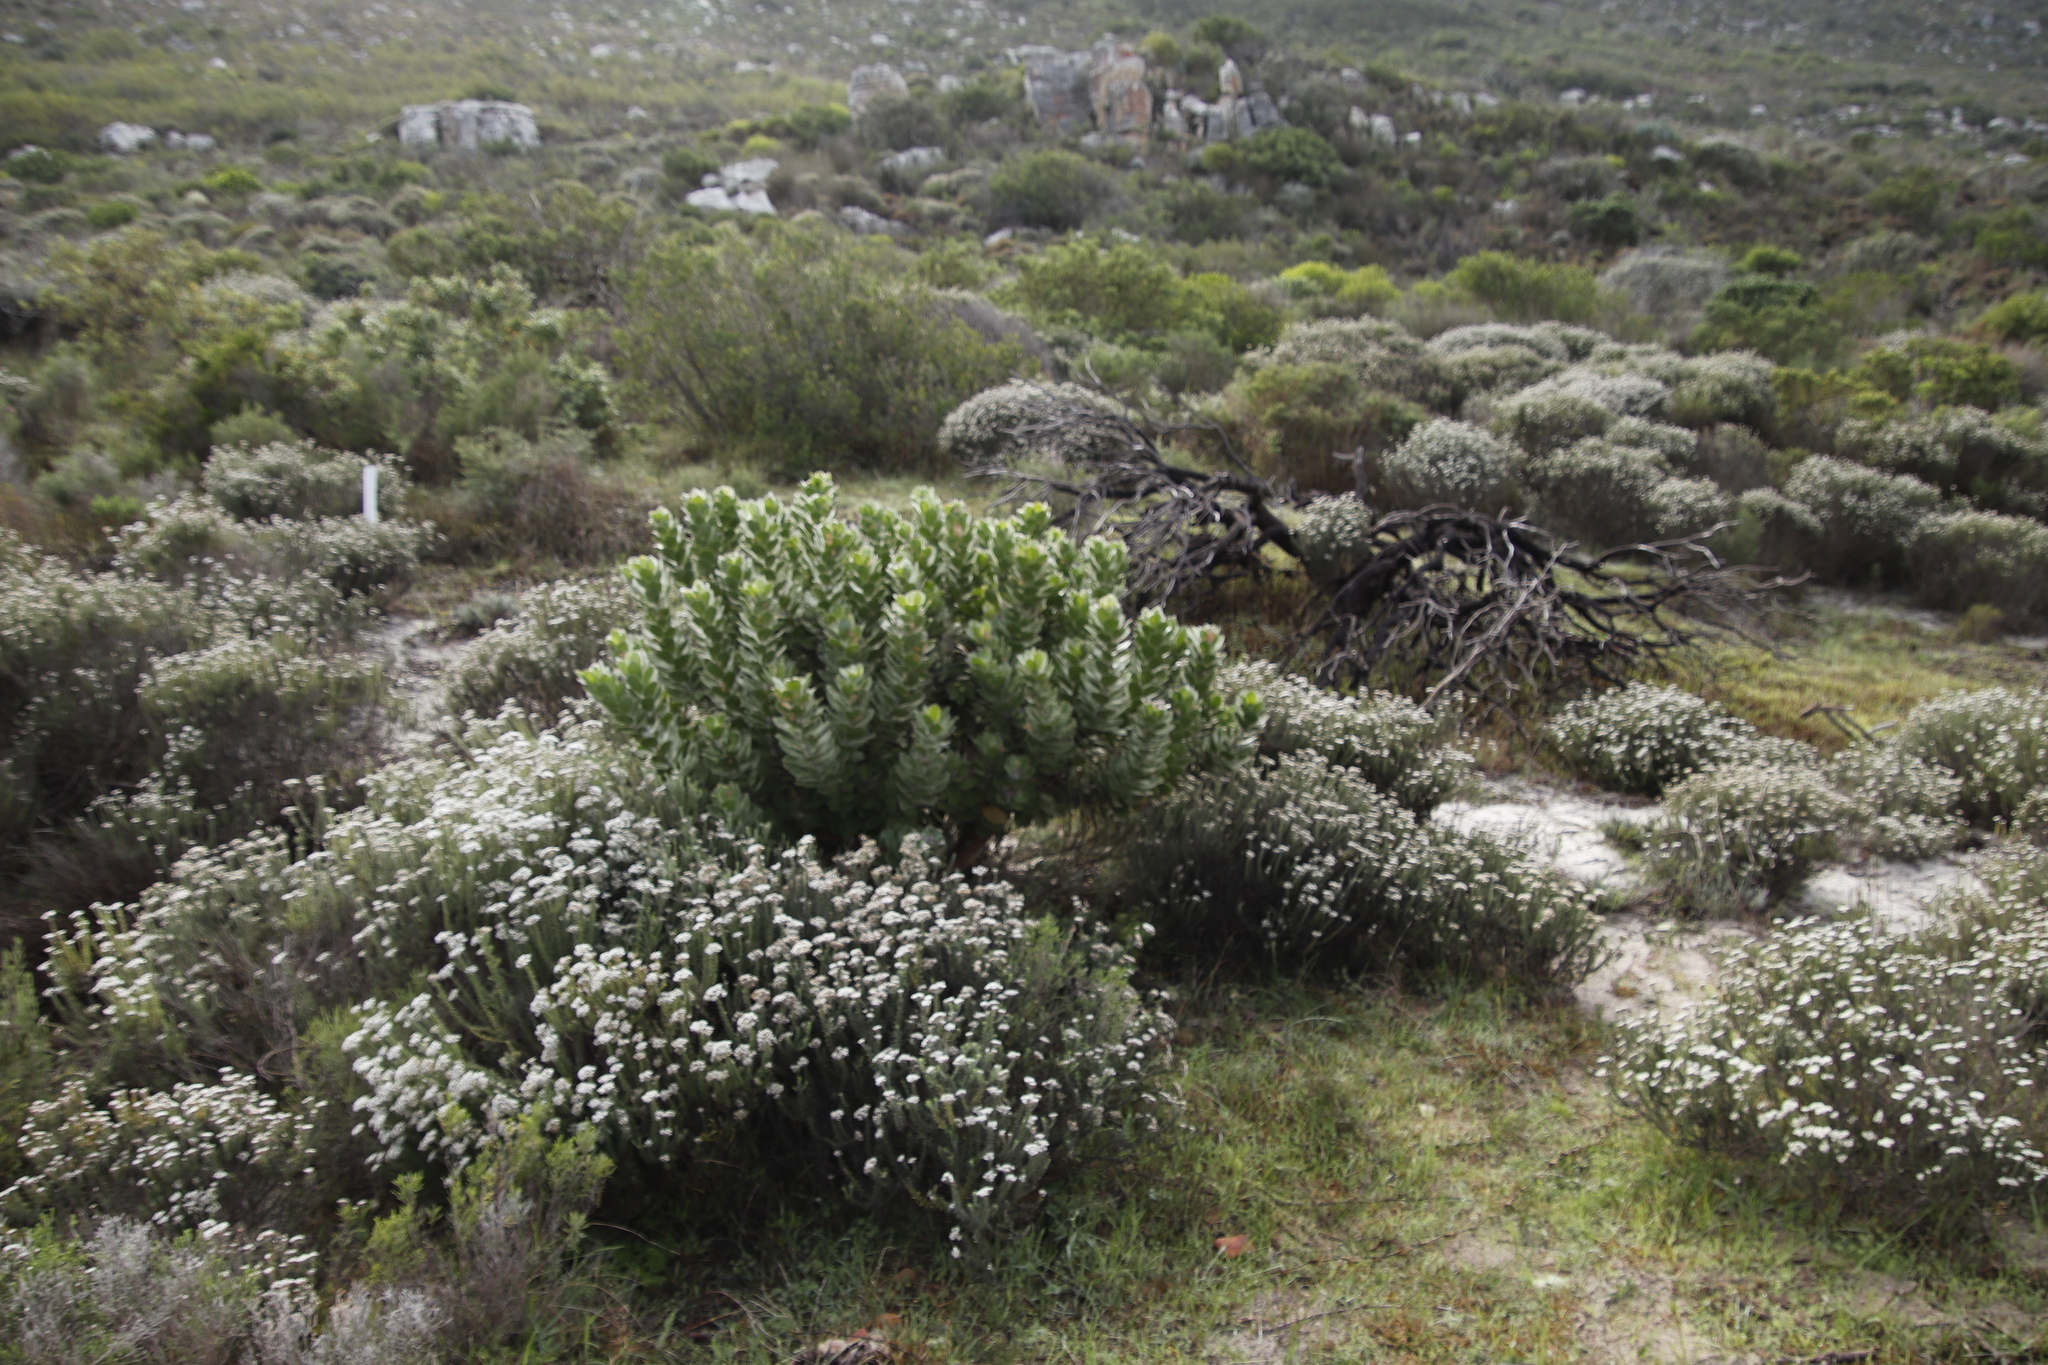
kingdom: Plantae
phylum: Tracheophyta
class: Magnoliopsida
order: Proteales
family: Proteaceae
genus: Leucospermum
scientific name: Leucospermum conocarpodendron
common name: Tree pincushion
